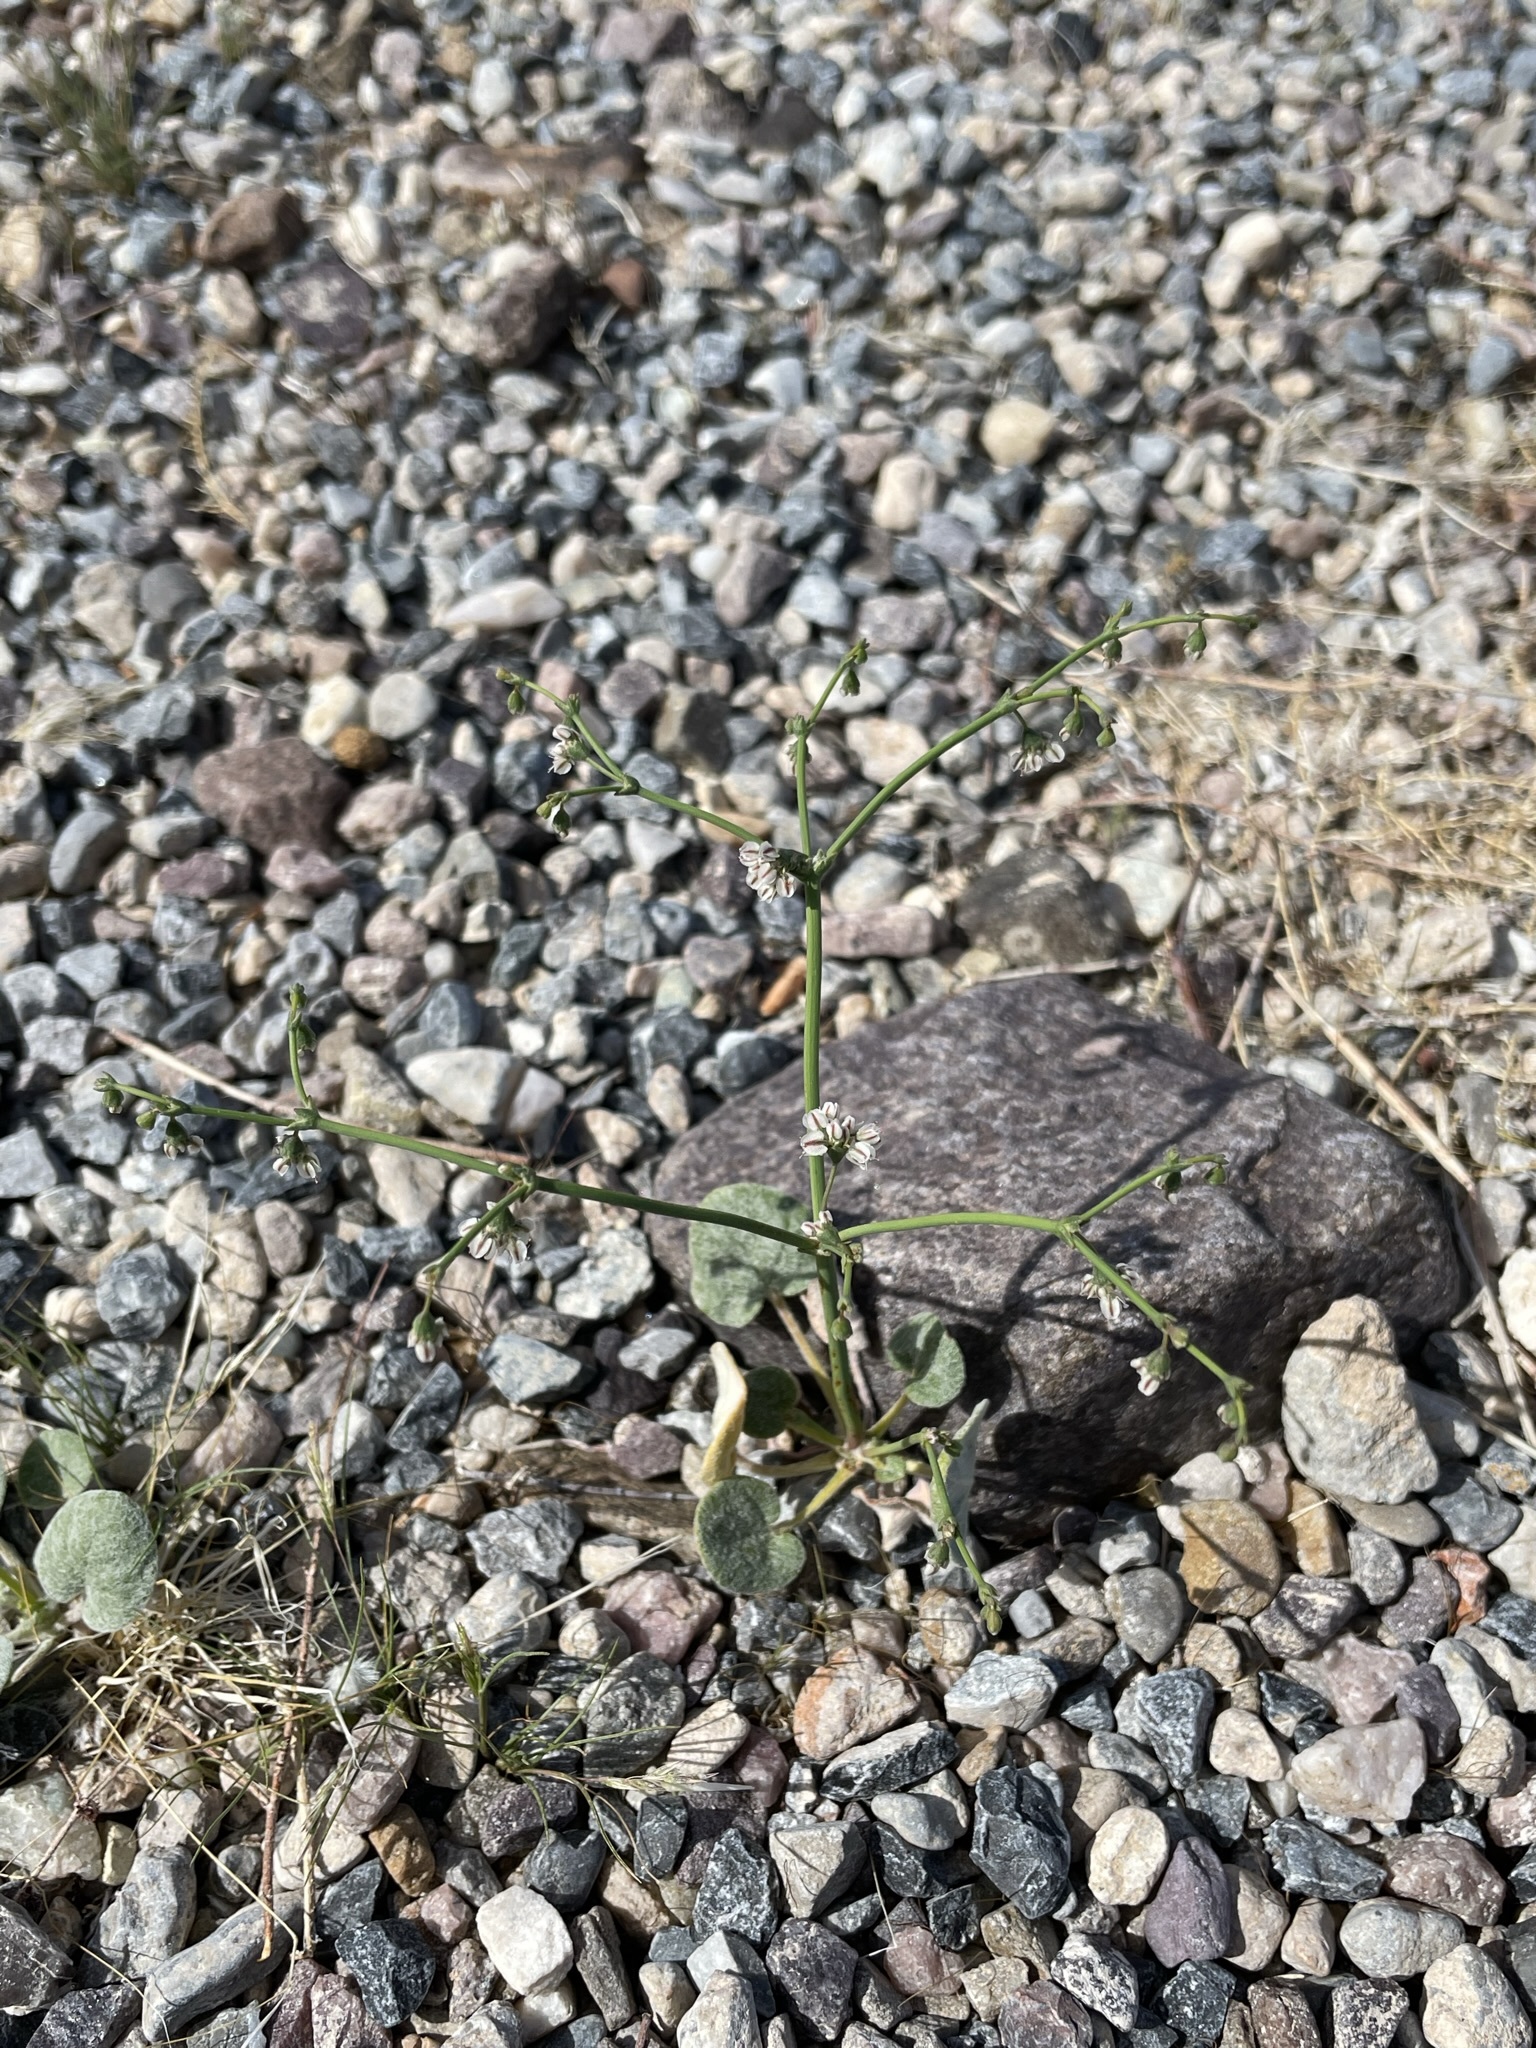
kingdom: Plantae
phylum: Tracheophyta
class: Magnoliopsida
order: Caryophyllales
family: Polygonaceae
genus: Eriogonum
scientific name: Eriogonum deflexum
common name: Skeleton-weed
